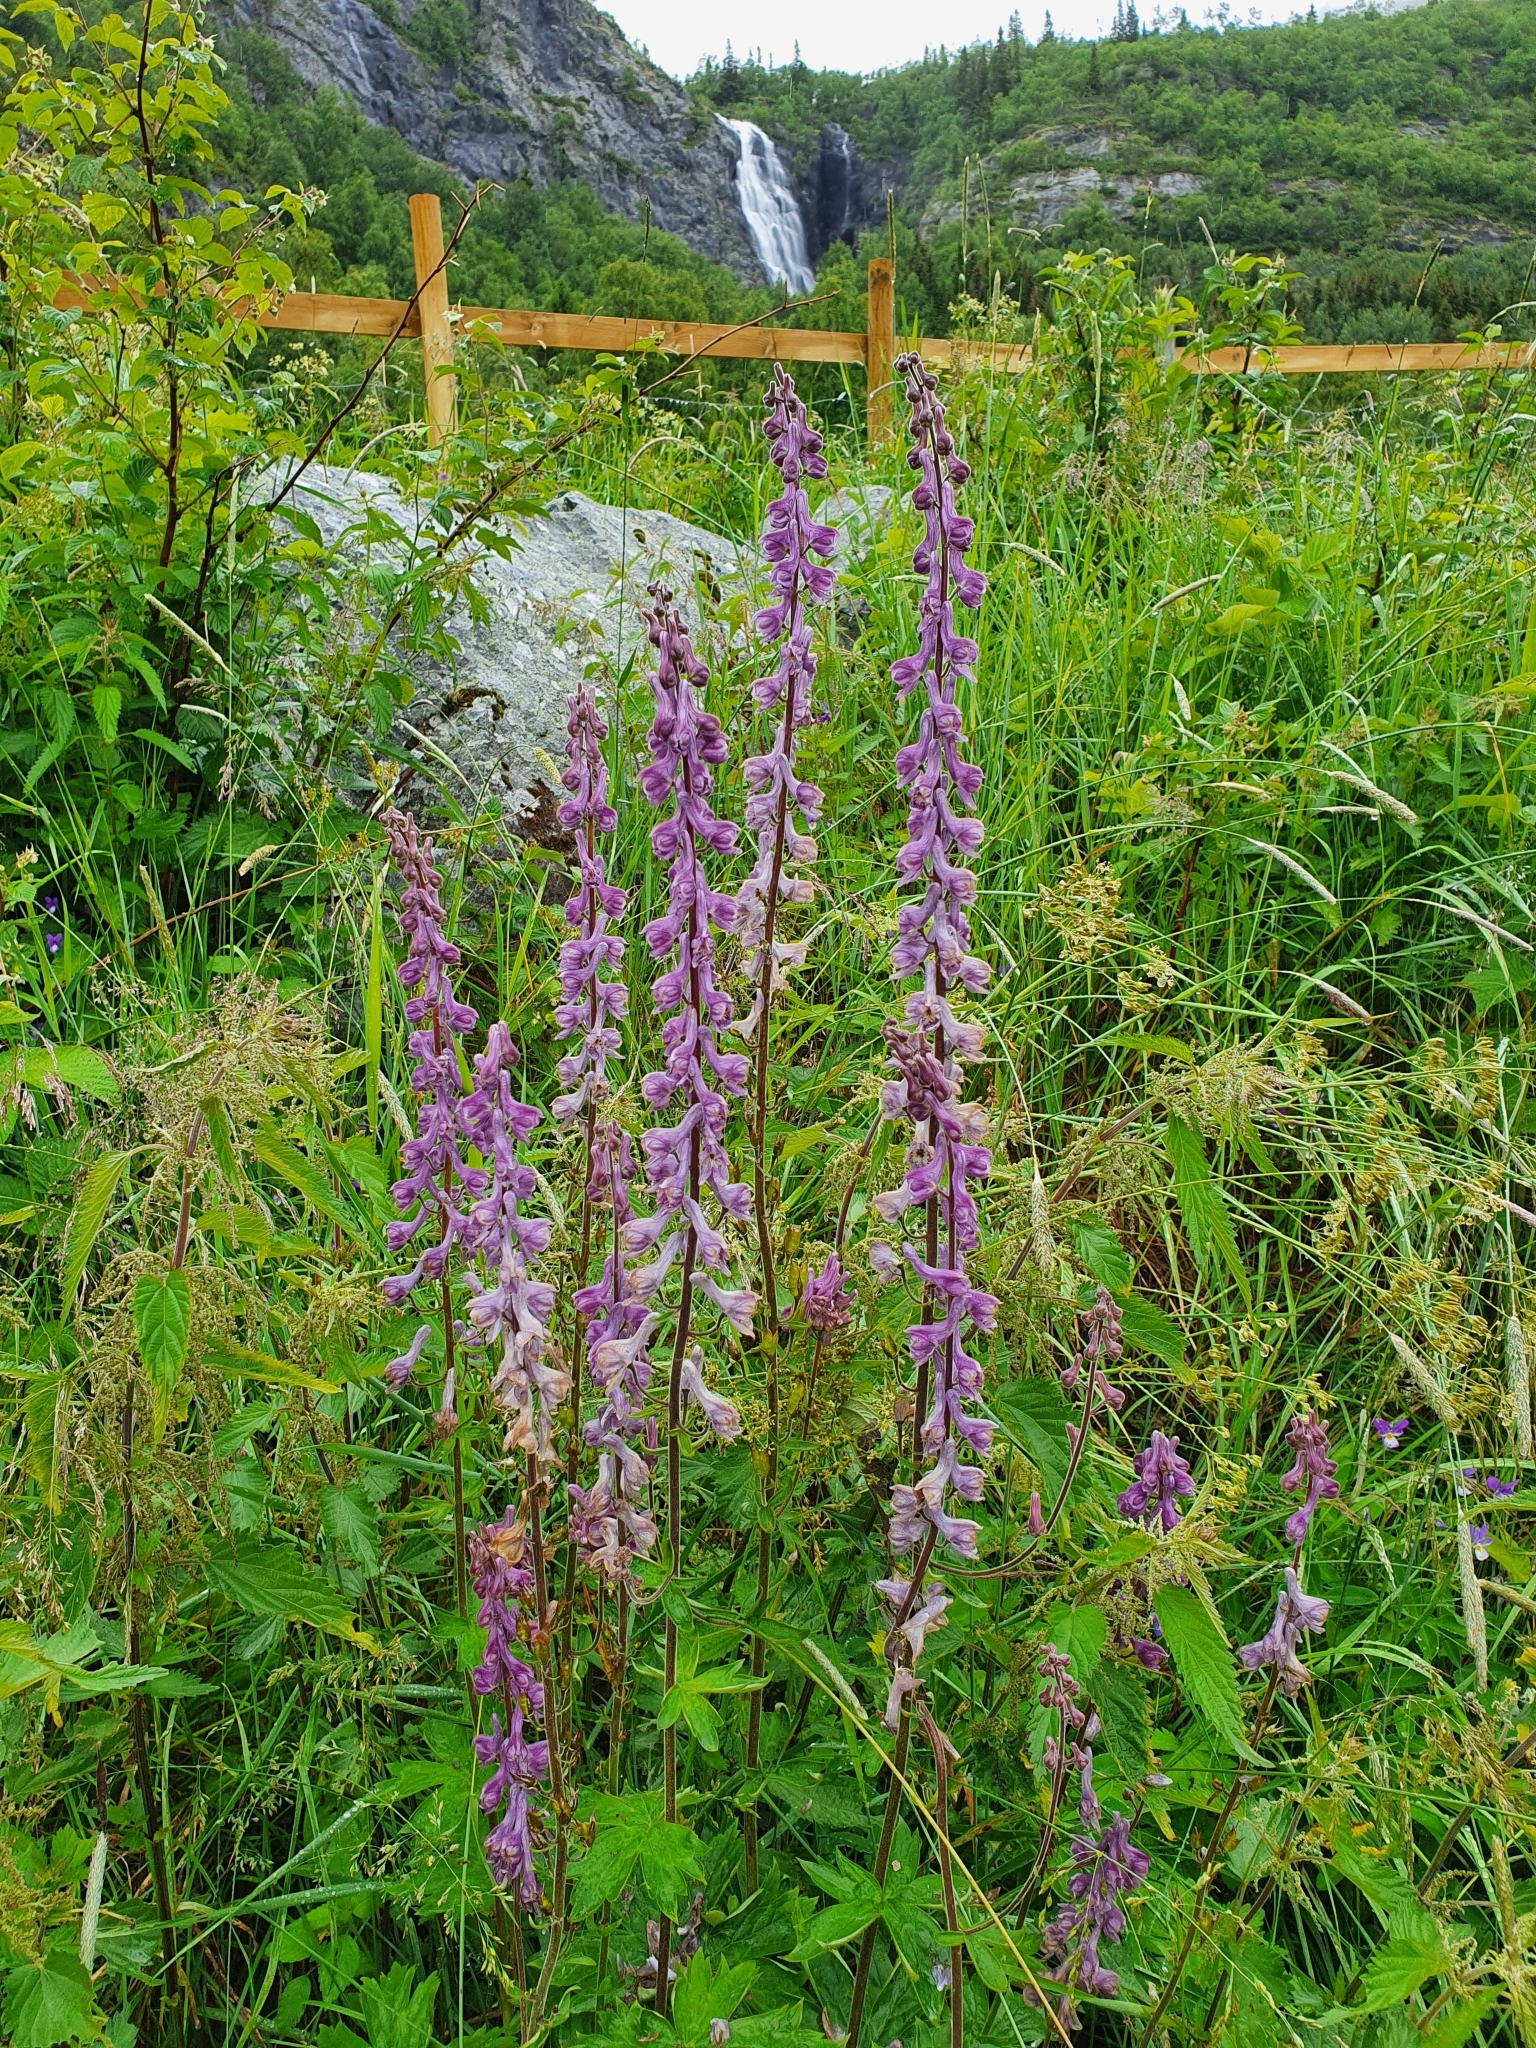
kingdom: Plantae
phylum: Tracheophyta
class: Magnoliopsida
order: Ranunculales
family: Ranunculaceae
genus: Aconitum
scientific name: Aconitum septentrionale
